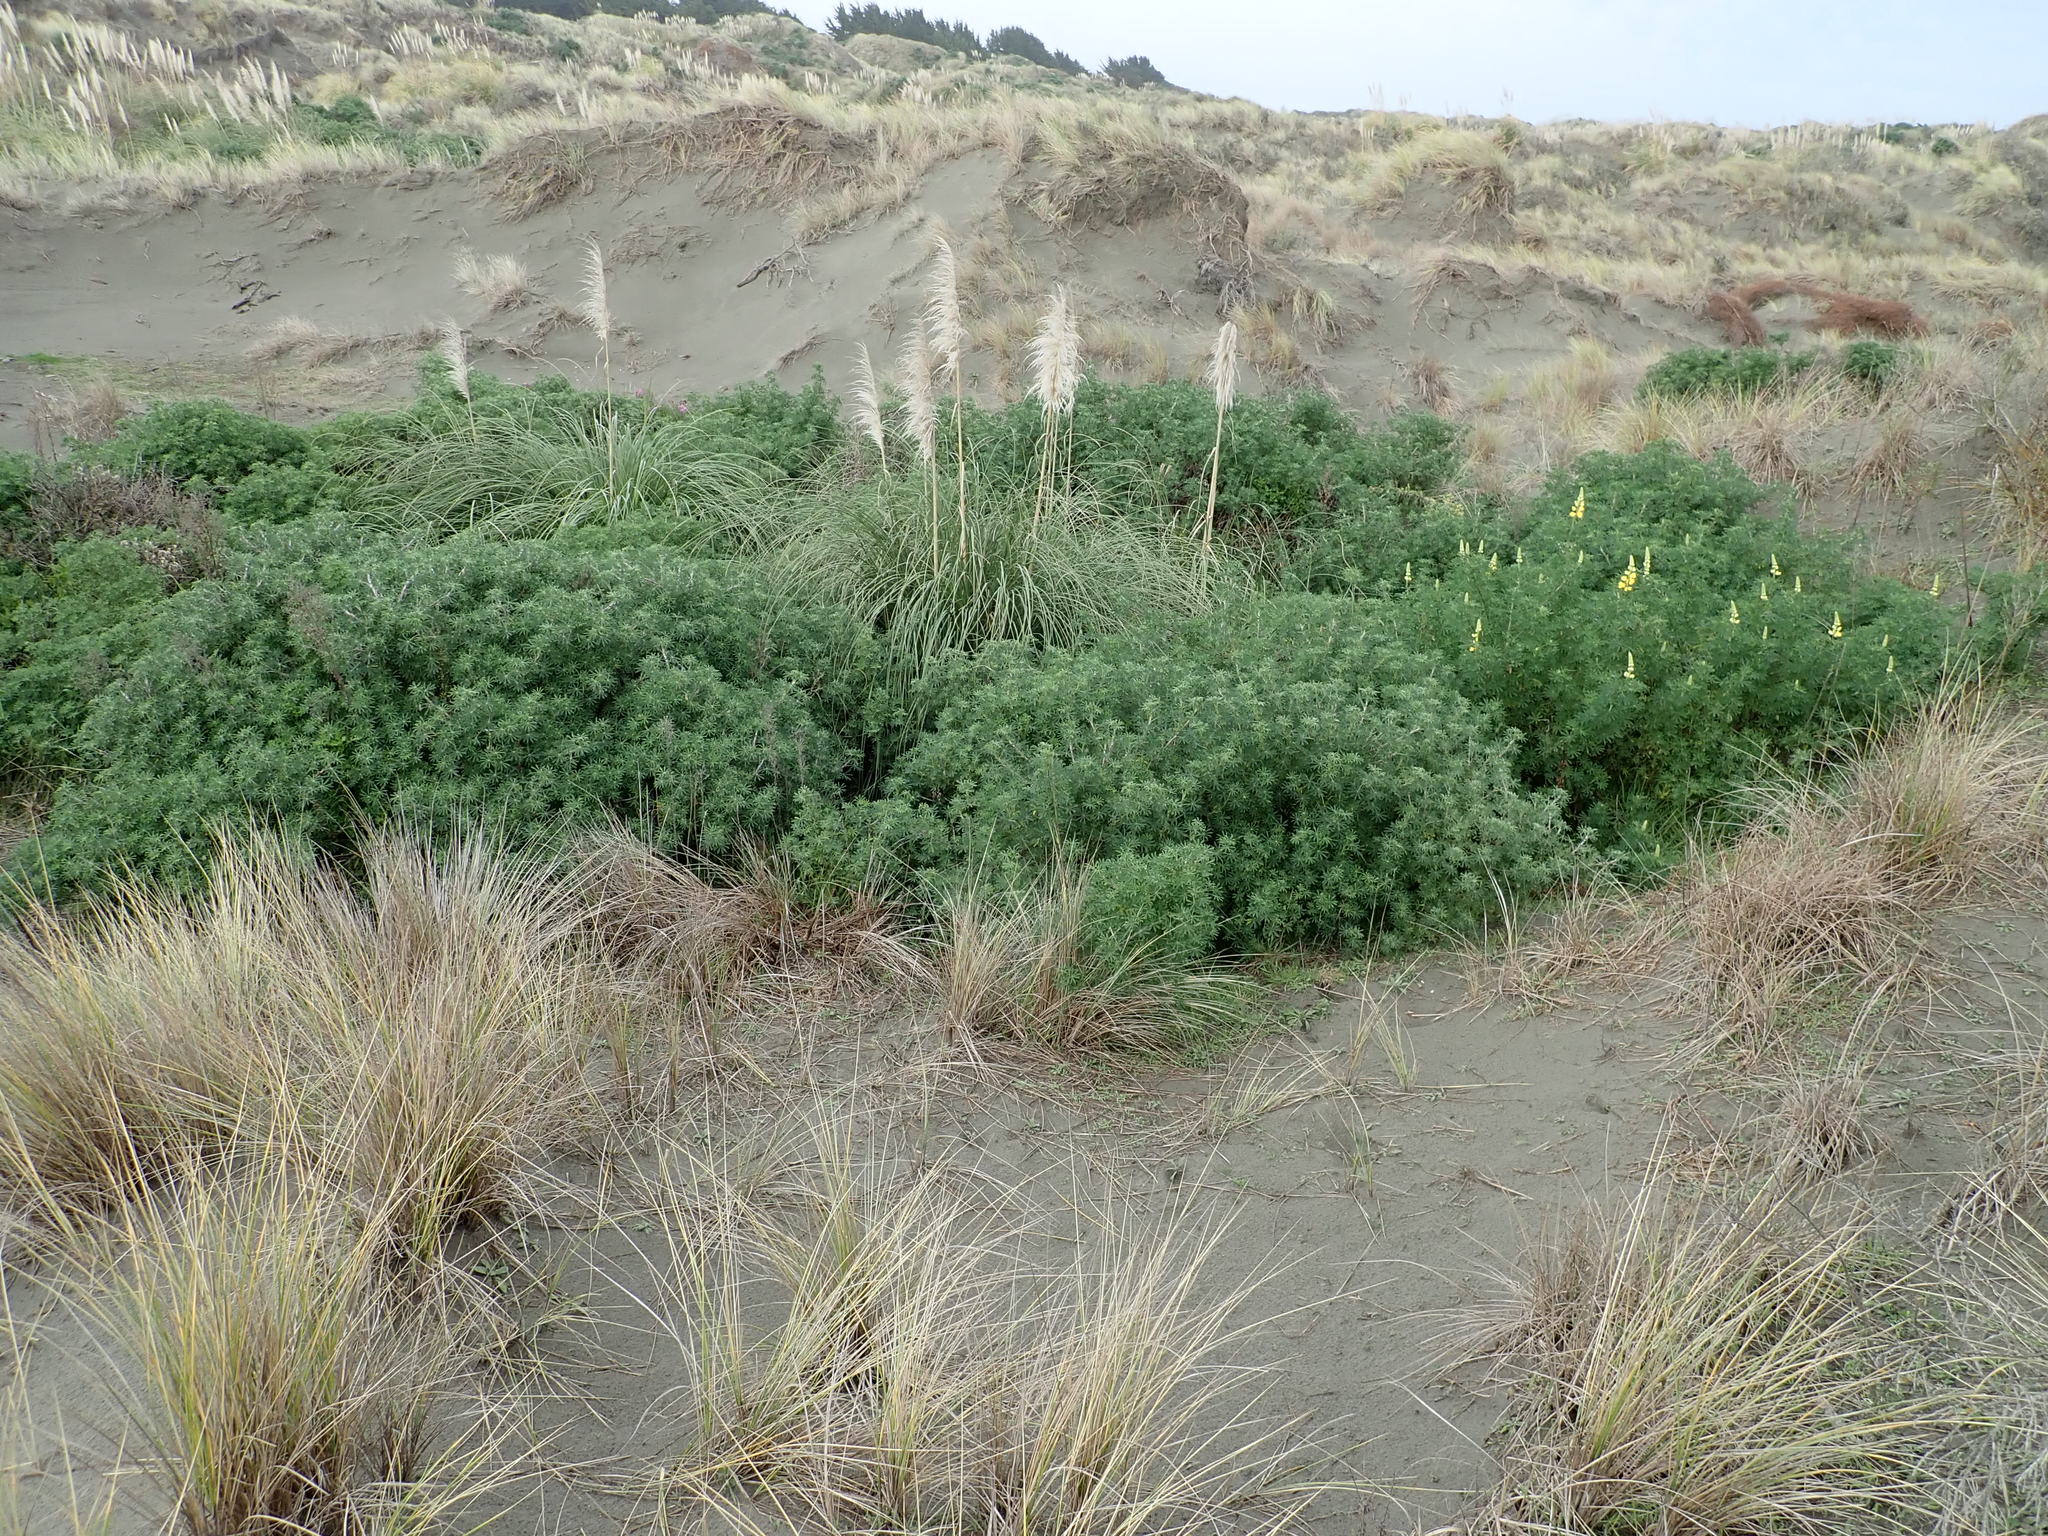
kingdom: Plantae
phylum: Tracheophyta
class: Magnoliopsida
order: Fabales
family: Fabaceae
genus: Lupinus
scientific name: Lupinus arboreus
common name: Yellow bush lupine
